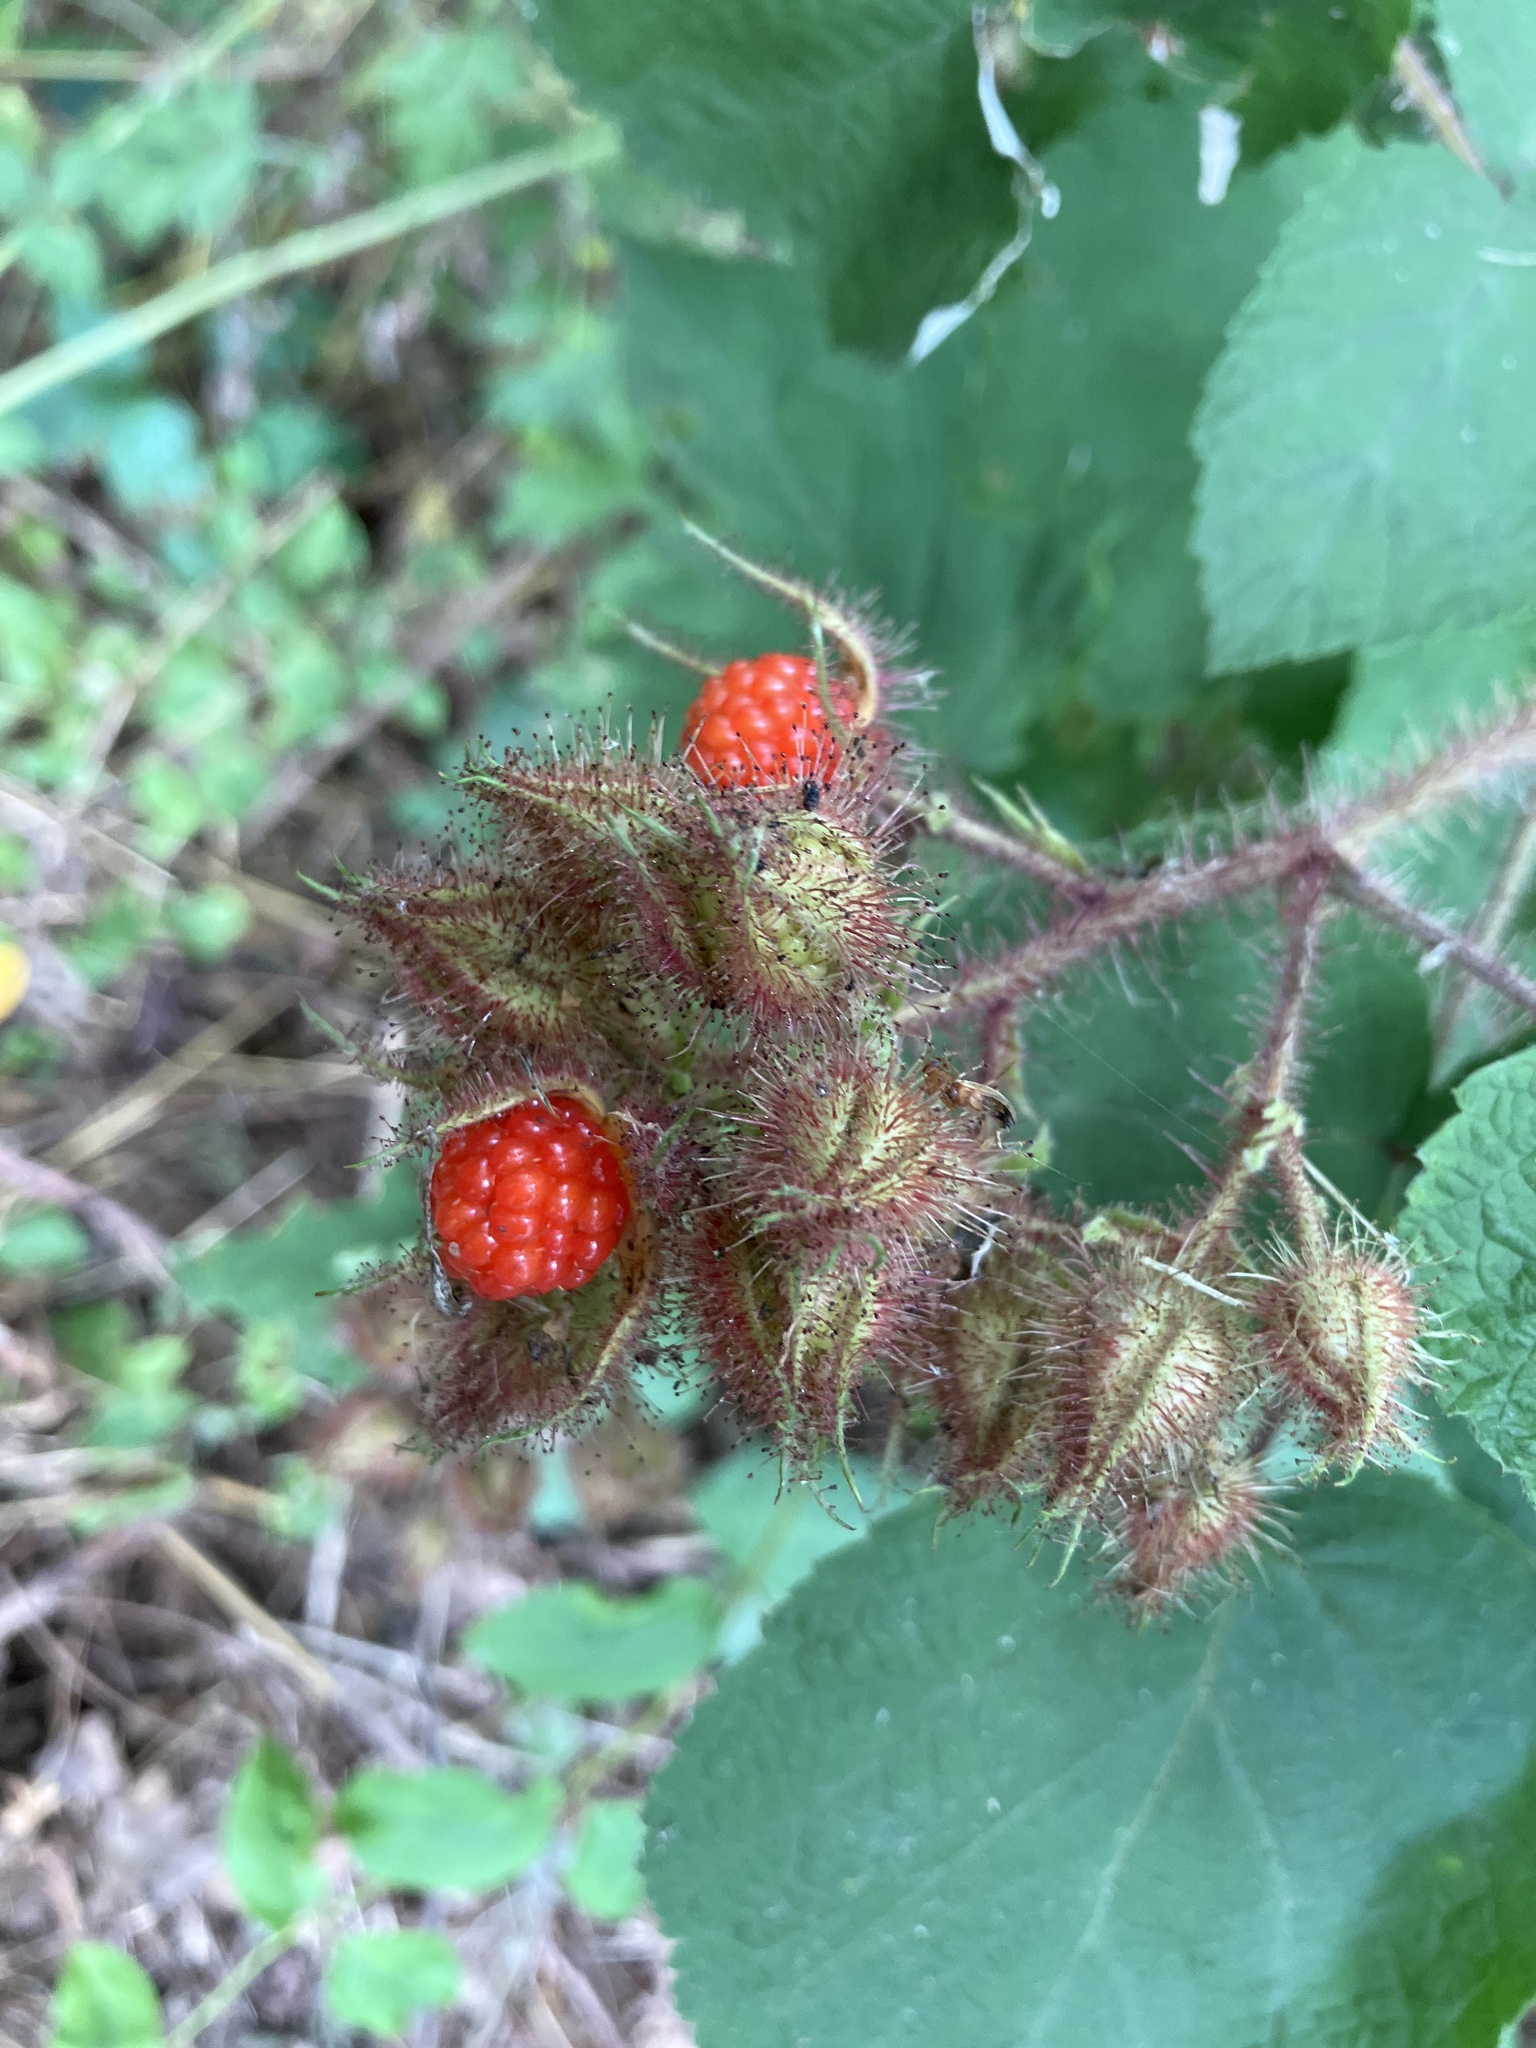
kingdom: Plantae
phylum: Tracheophyta
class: Magnoliopsida
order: Rosales
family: Rosaceae
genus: Rubus
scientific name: Rubus phoenicolasius
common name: Japanese wineberry
